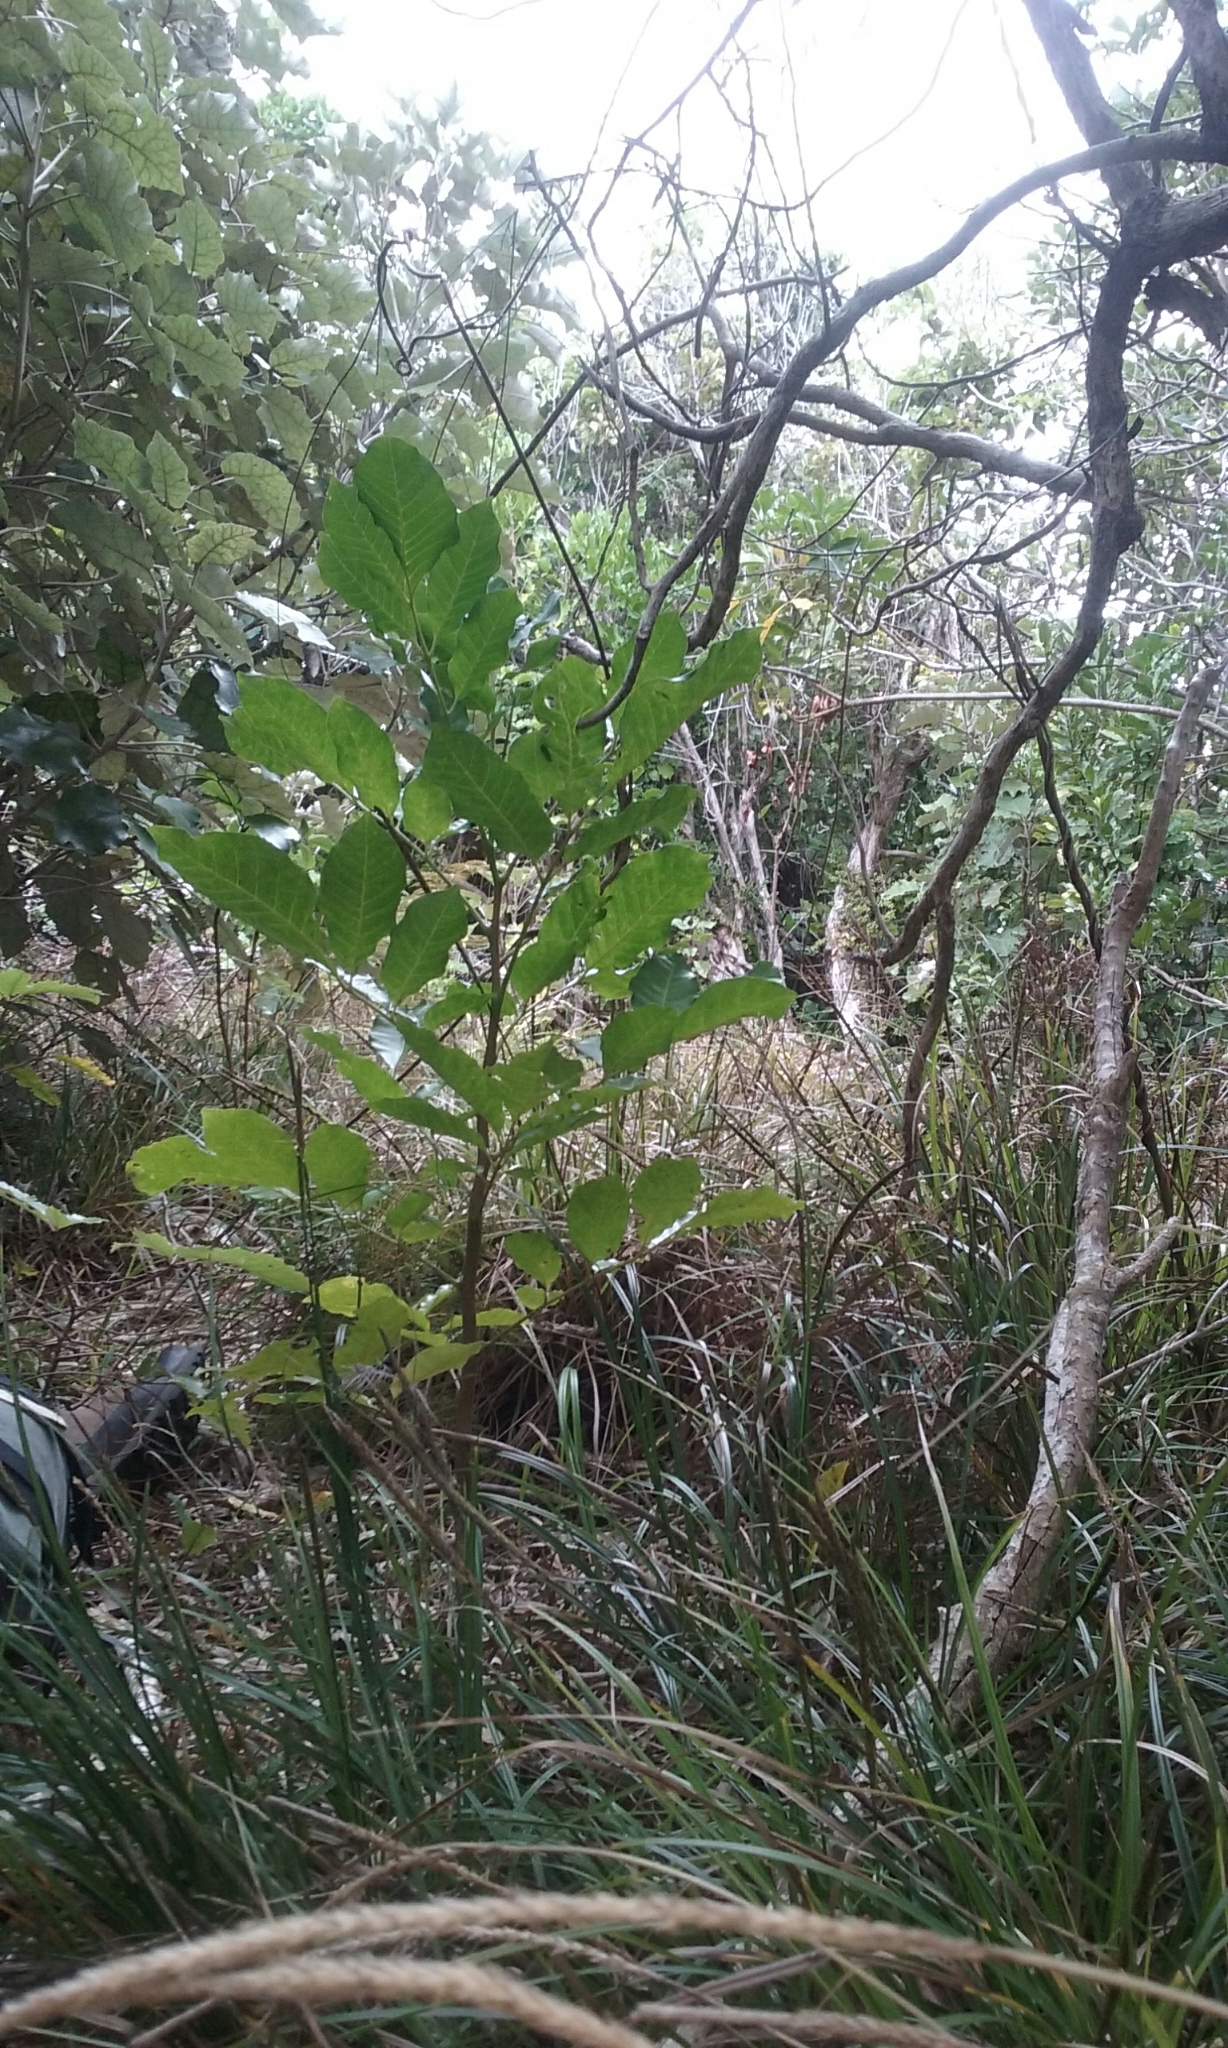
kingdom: Plantae
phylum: Tracheophyta
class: Magnoliopsida
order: Sapindales
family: Meliaceae
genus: Didymocheton
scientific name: Didymocheton spectabilis
